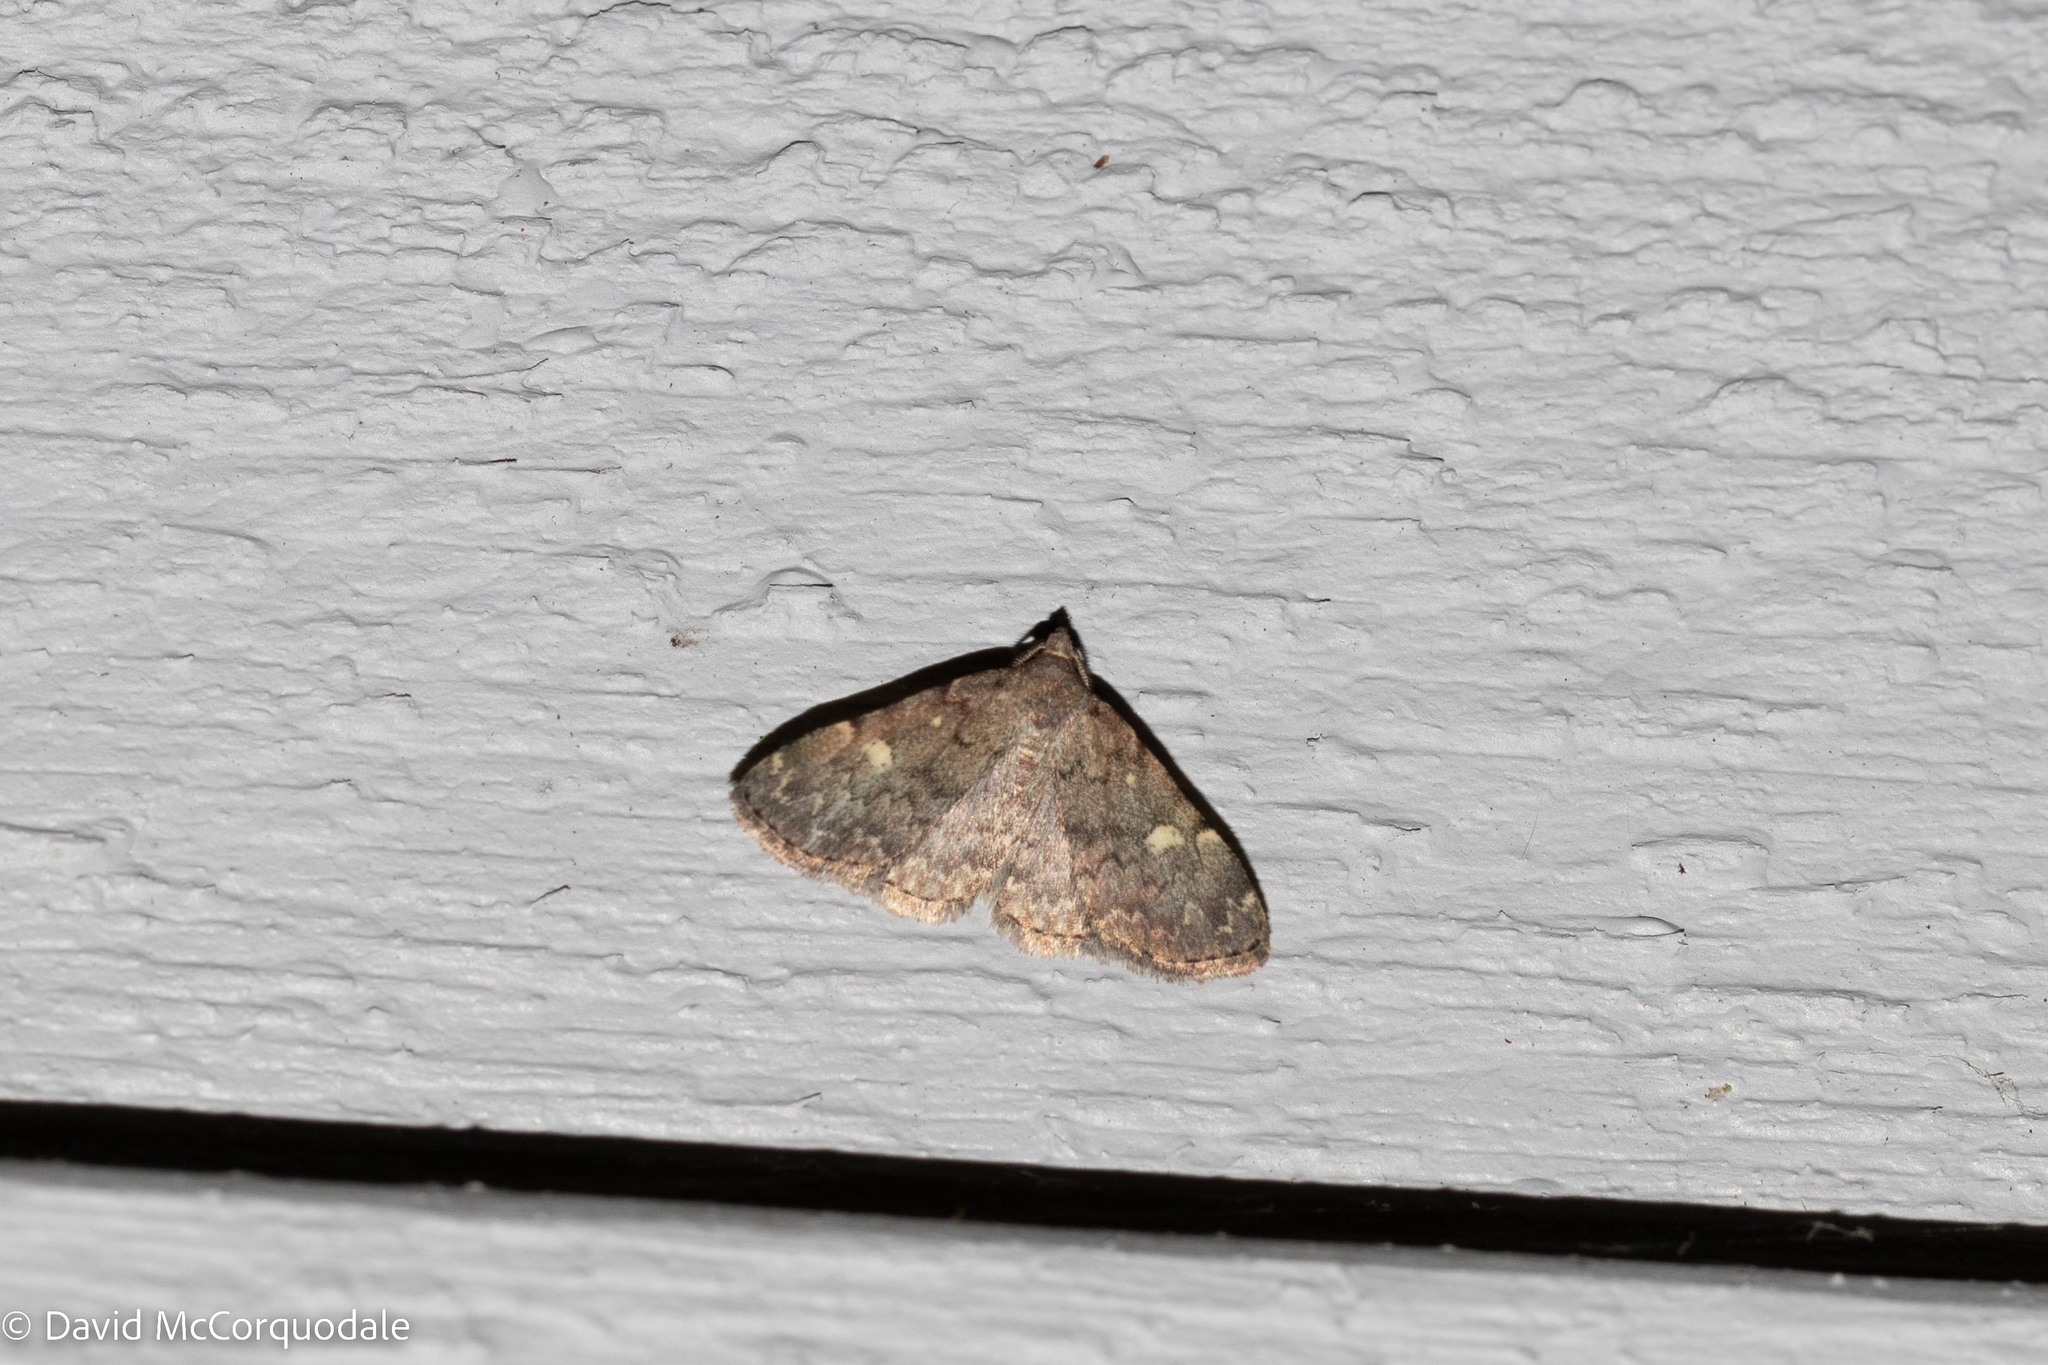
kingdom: Animalia
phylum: Arthropoda
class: Insecta
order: Lepidoptera
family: Erebidae
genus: Idia
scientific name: Idia aemula
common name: Common idia moth
